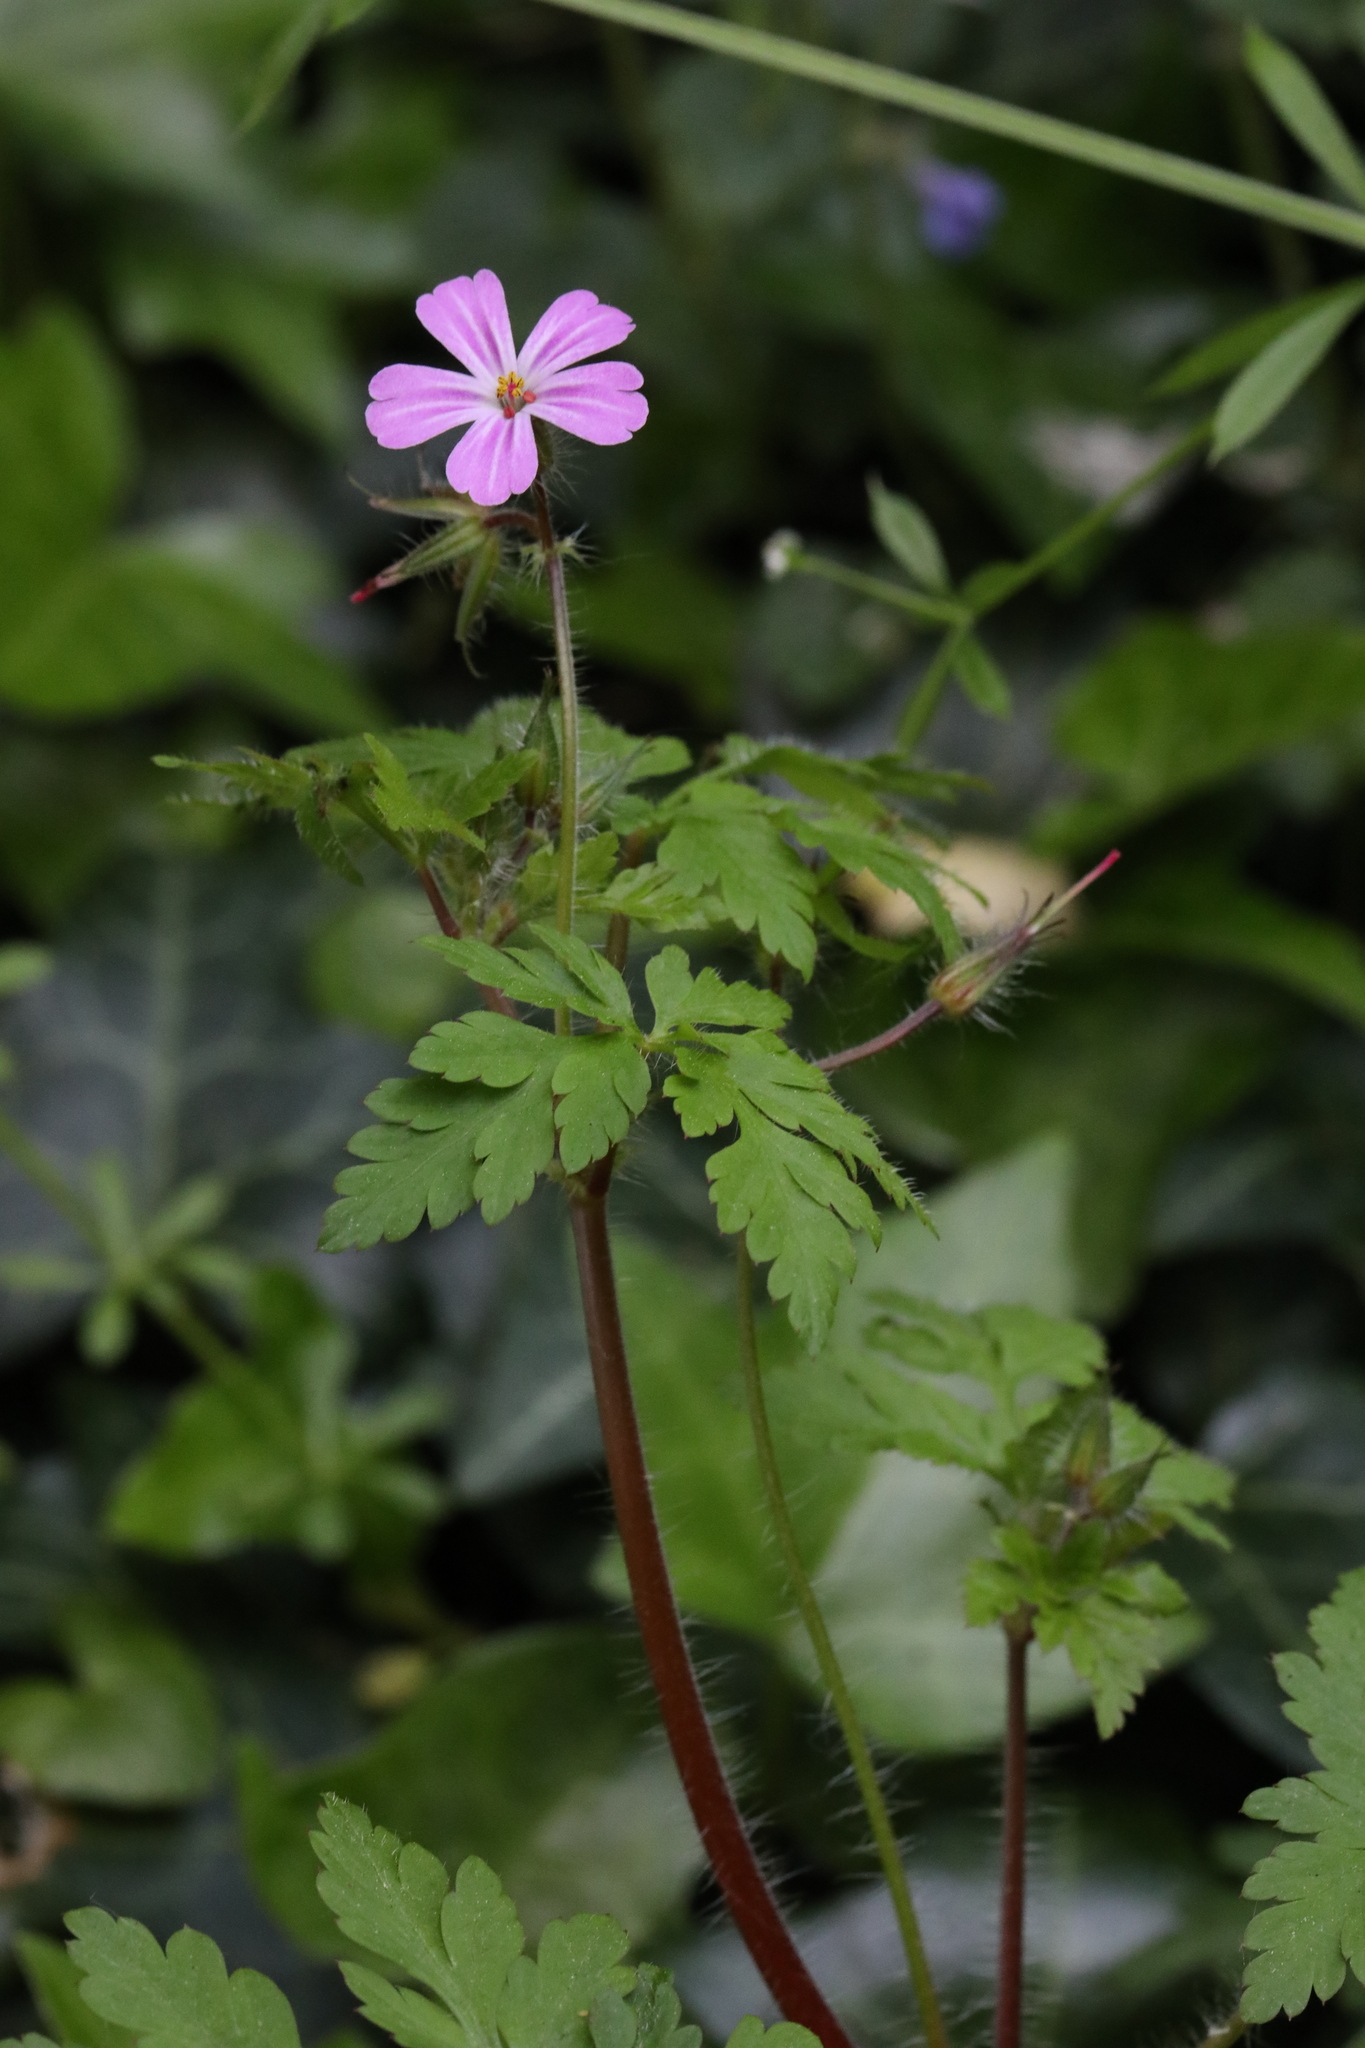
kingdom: Plantae
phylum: Tracheophyta
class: Magnoliopsida
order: Geraniales
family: Geraniaceae
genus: Geranium
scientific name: Geranium robertianum
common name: Herb-robert
